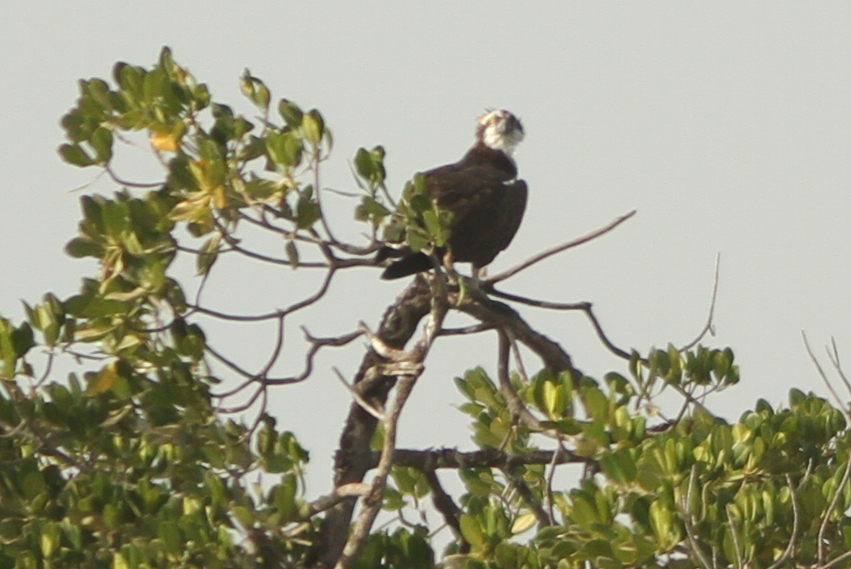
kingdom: Animalia
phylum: Chordata
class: Aves
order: Accipitriformes
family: Pandionidae
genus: Pandion
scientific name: Pandion haliaetus
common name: Osprey
